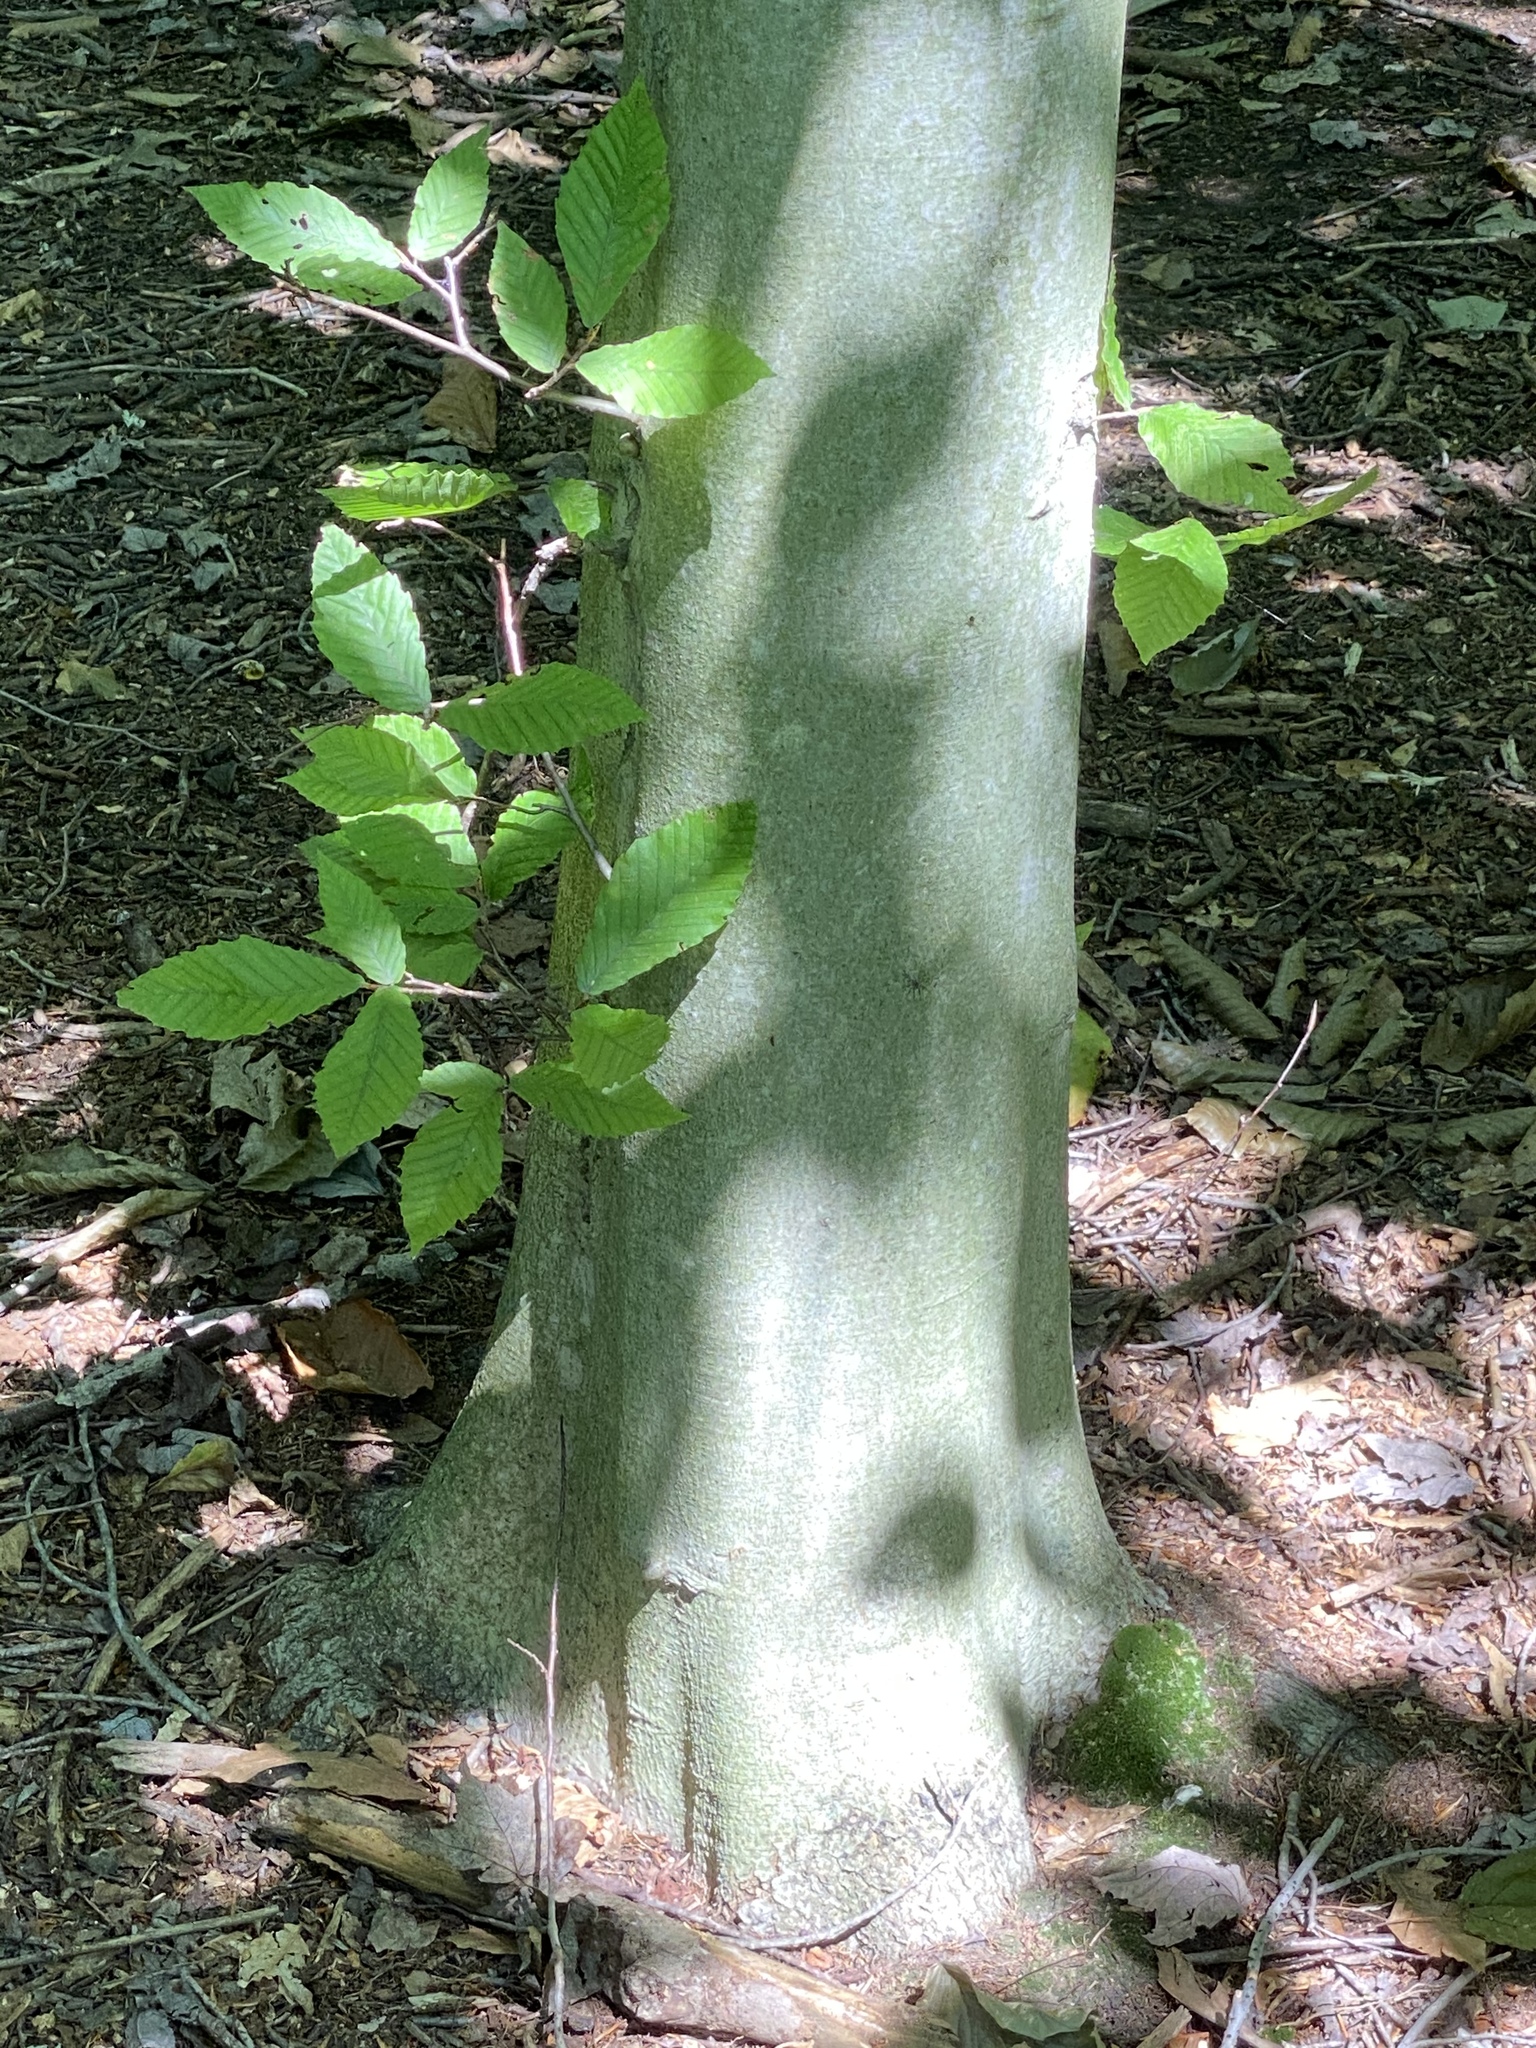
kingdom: Plantae
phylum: Tracheophyta
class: Magnoliopsida
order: Fagales
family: Fagaceae
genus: Fagus
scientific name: Fagus grandifolia
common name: American beech
